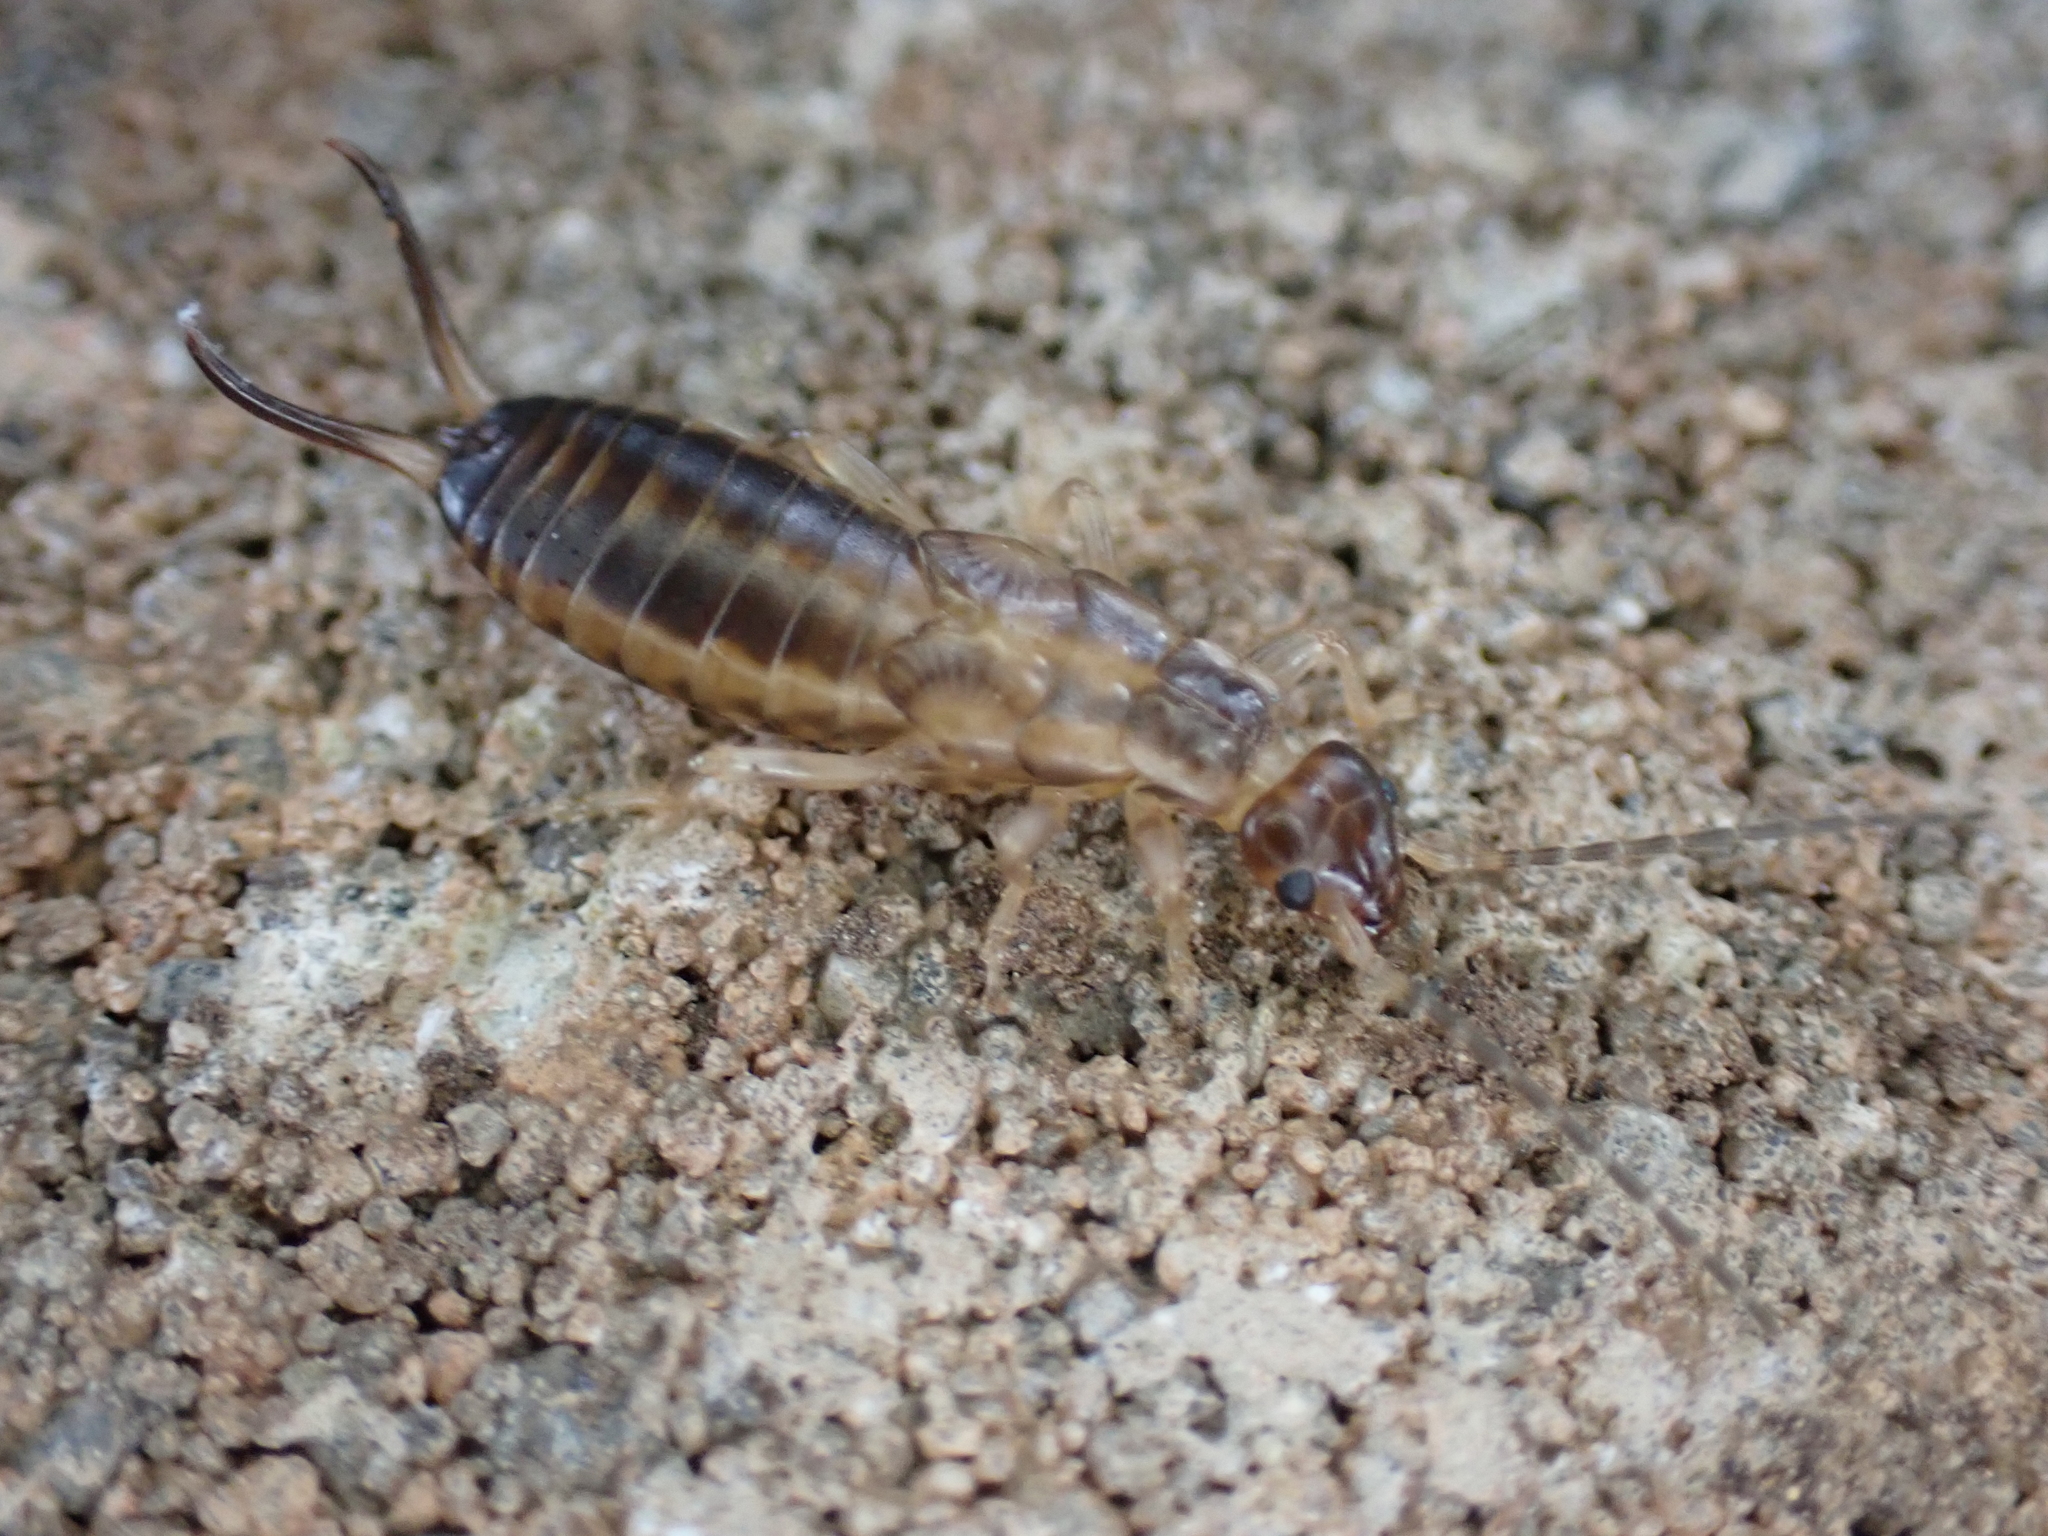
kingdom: Animalia
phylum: Arthropoda
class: Insecta
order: Dermaptera
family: Forficulidae
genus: Forficula
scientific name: Forficula
